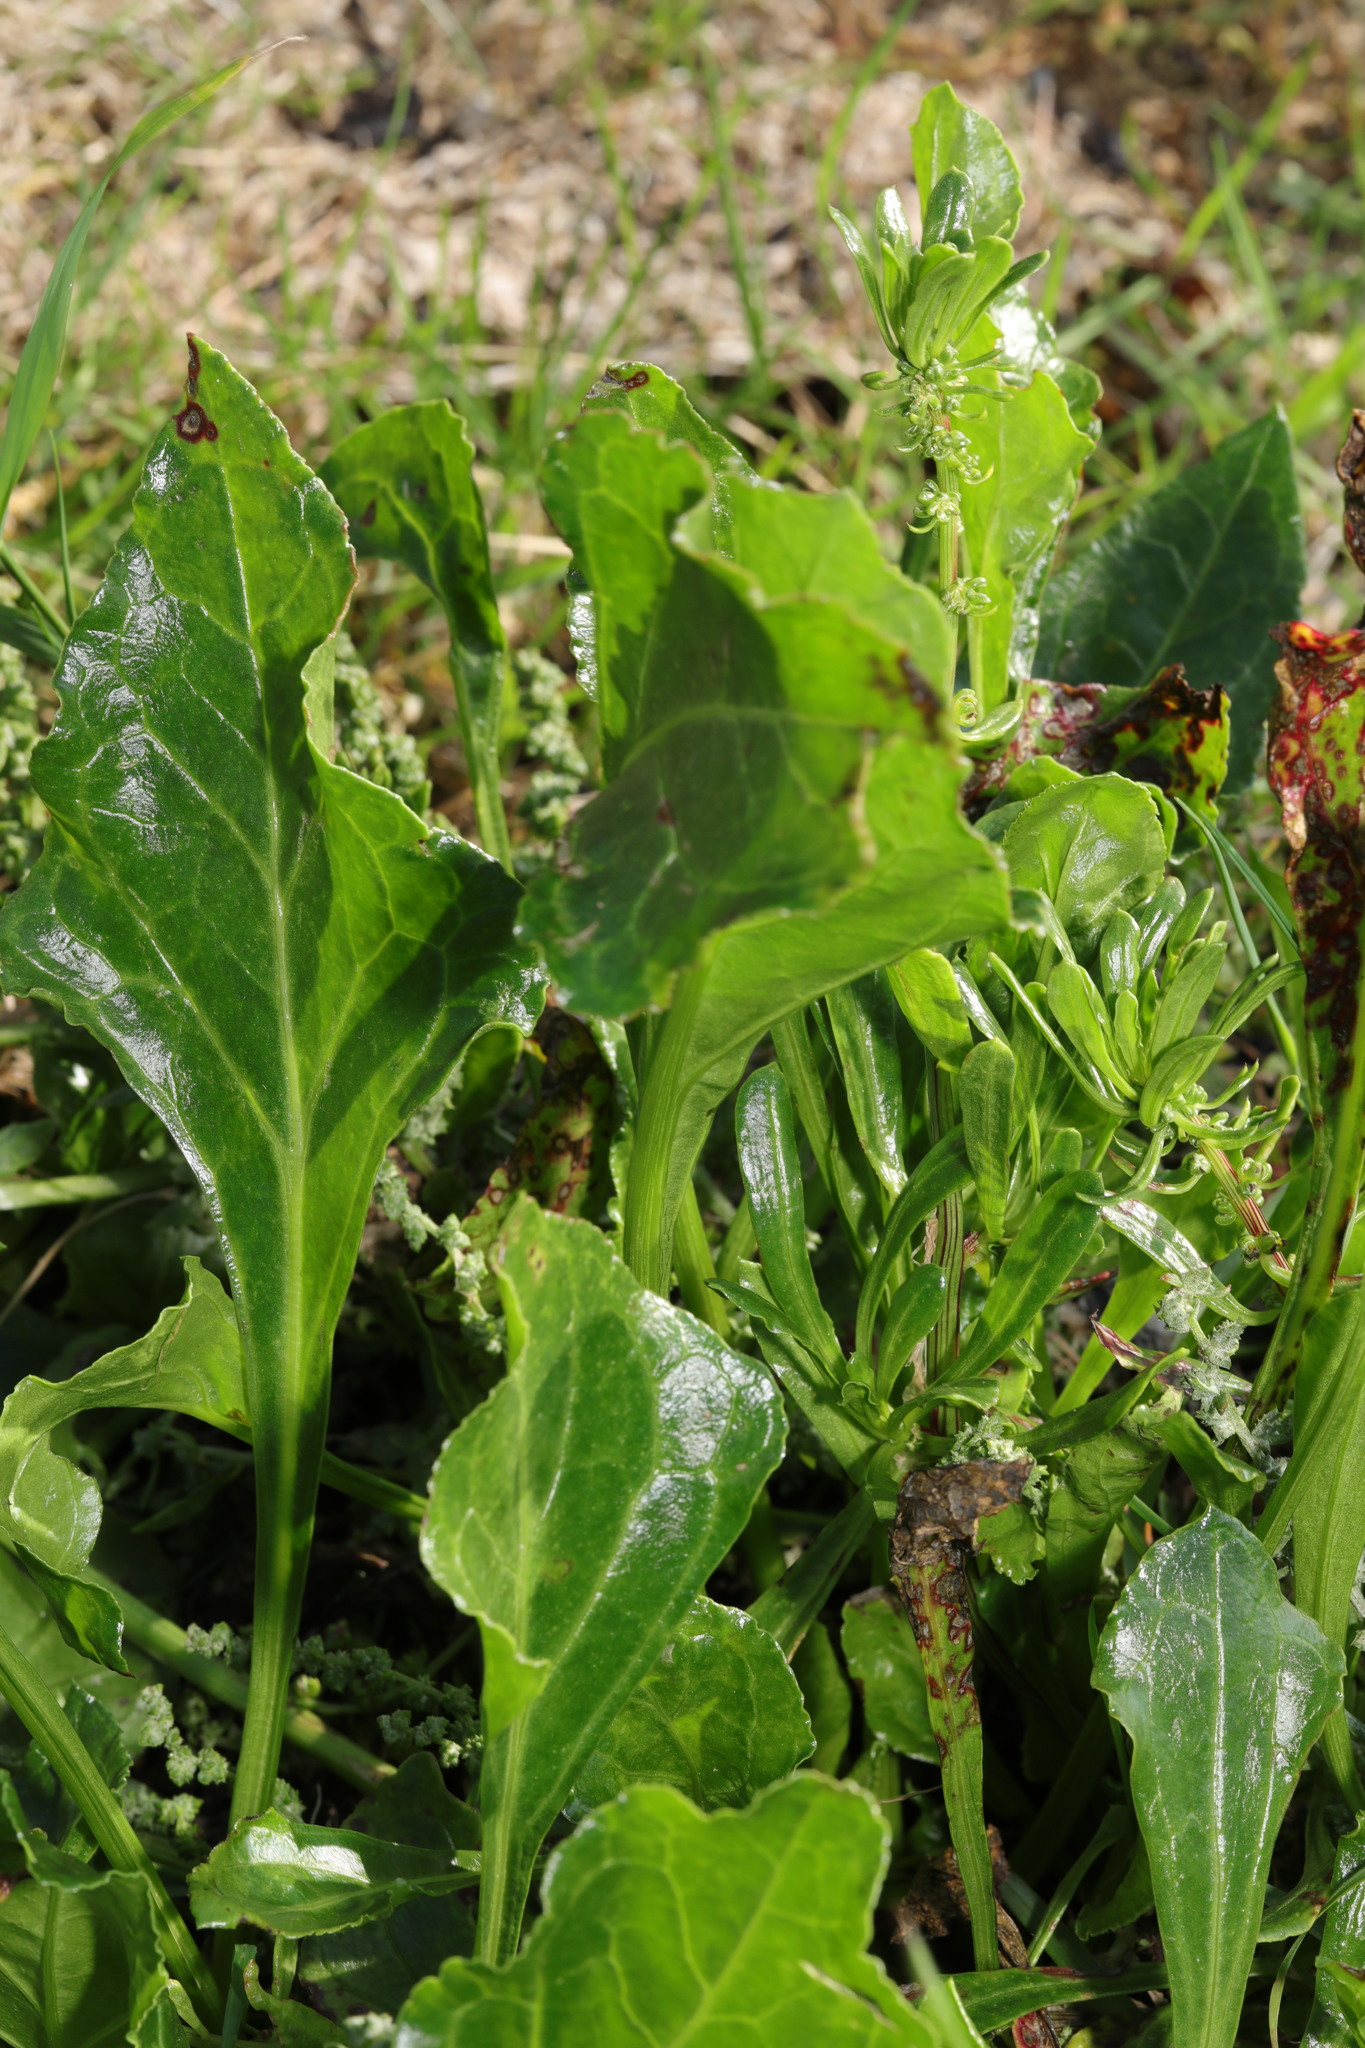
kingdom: Plantae
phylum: Tracheophyta
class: Magnoliopsida
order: Caryophyllales
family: Amaranthaceae
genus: Beta
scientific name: Beta vulgaris
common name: Beet
